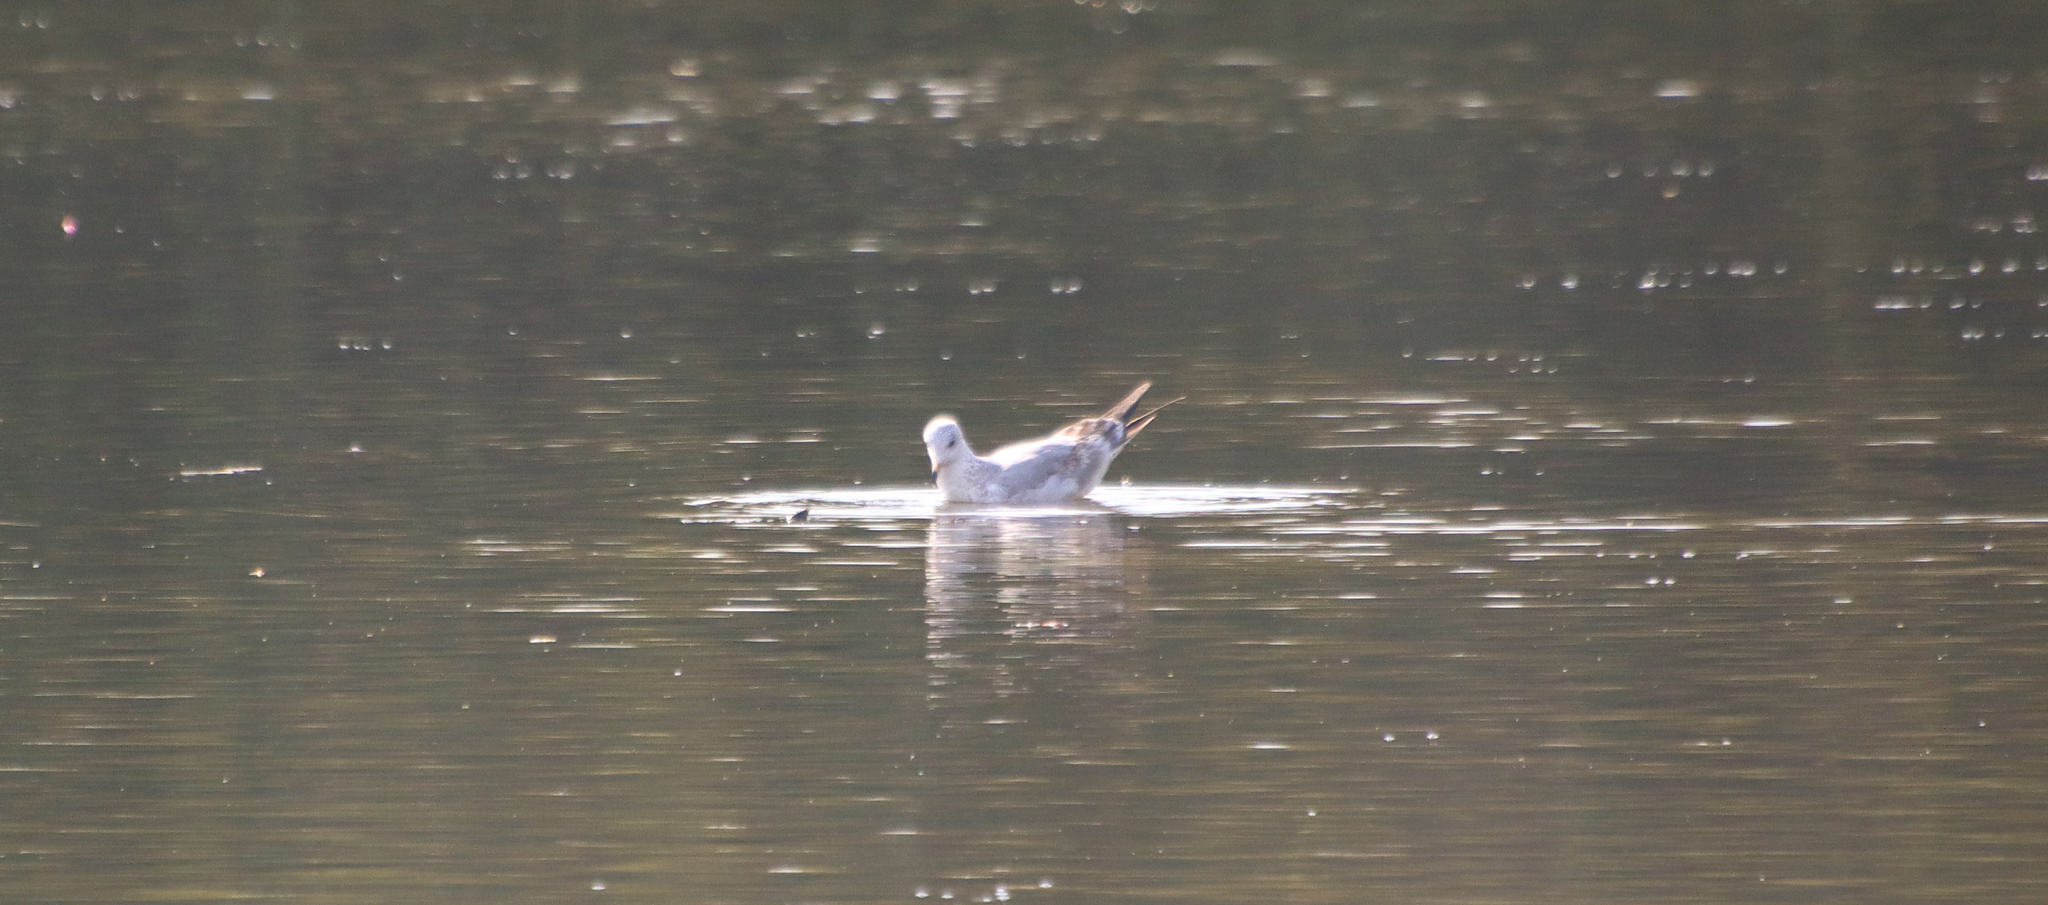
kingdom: Animalia
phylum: Chordata
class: Aves
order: Charadriiformes
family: Laridae
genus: Larus
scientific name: Larus delawarensis
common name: Ring-billed gull
